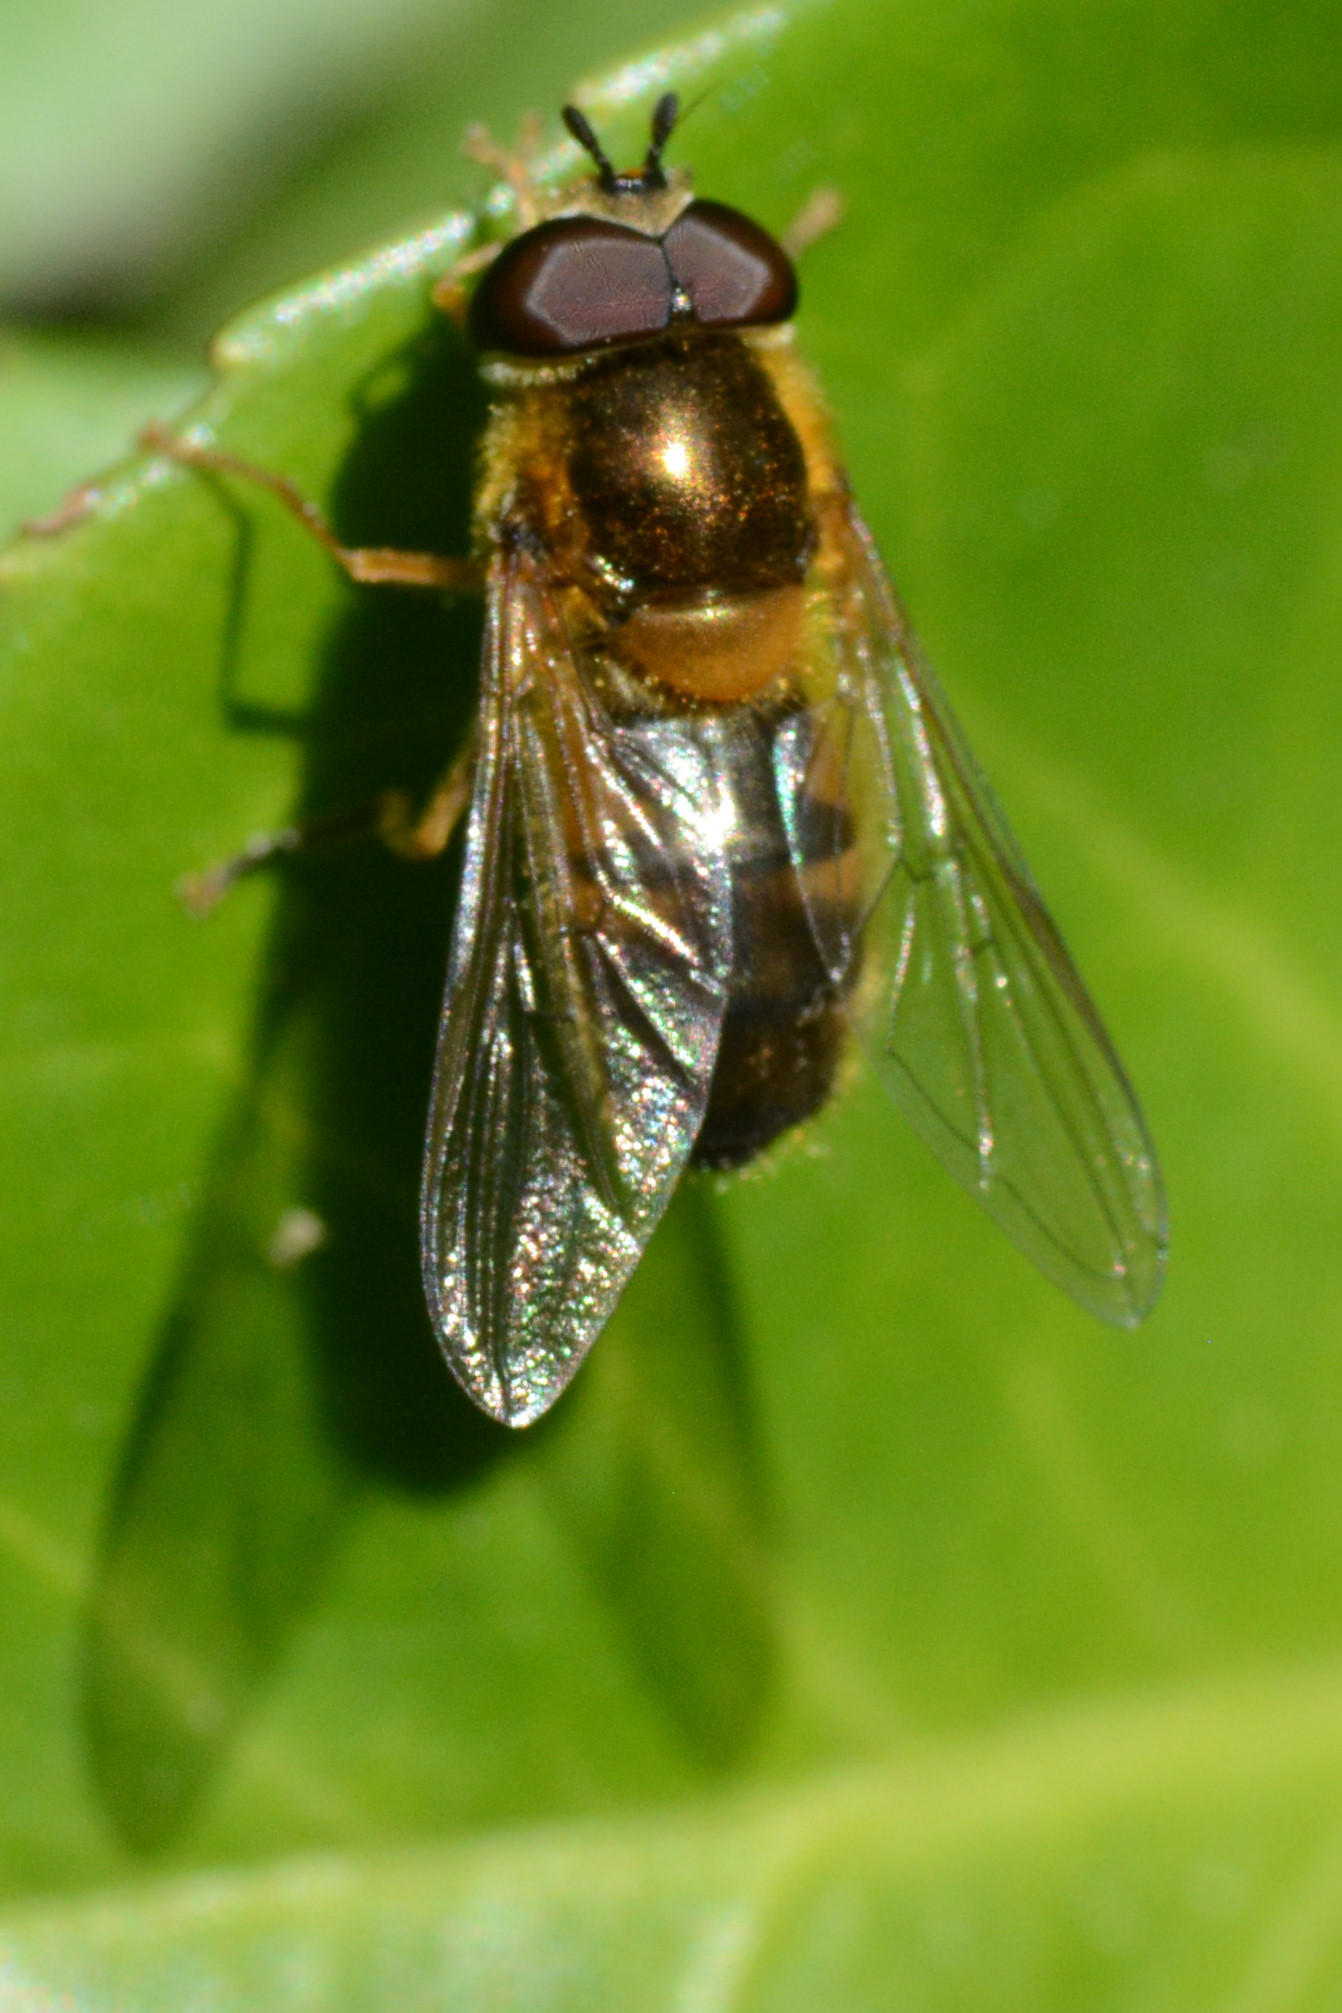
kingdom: Animalia
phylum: Arthropoda
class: Insecta
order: Diptera
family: Syrphidae
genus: Epistrophe
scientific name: Epistrophe eligans
